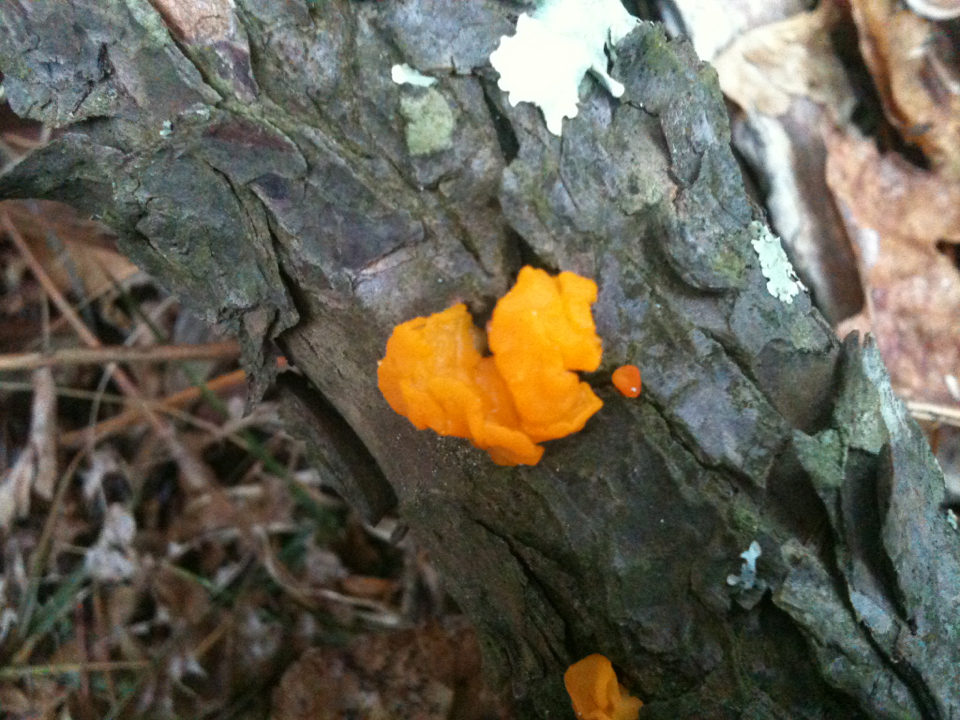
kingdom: Fungi
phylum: Basidiomycota
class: Tremellomycetes
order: Tremellales
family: Tremellaceae
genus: Tremella
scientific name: Tremella mesenterica
